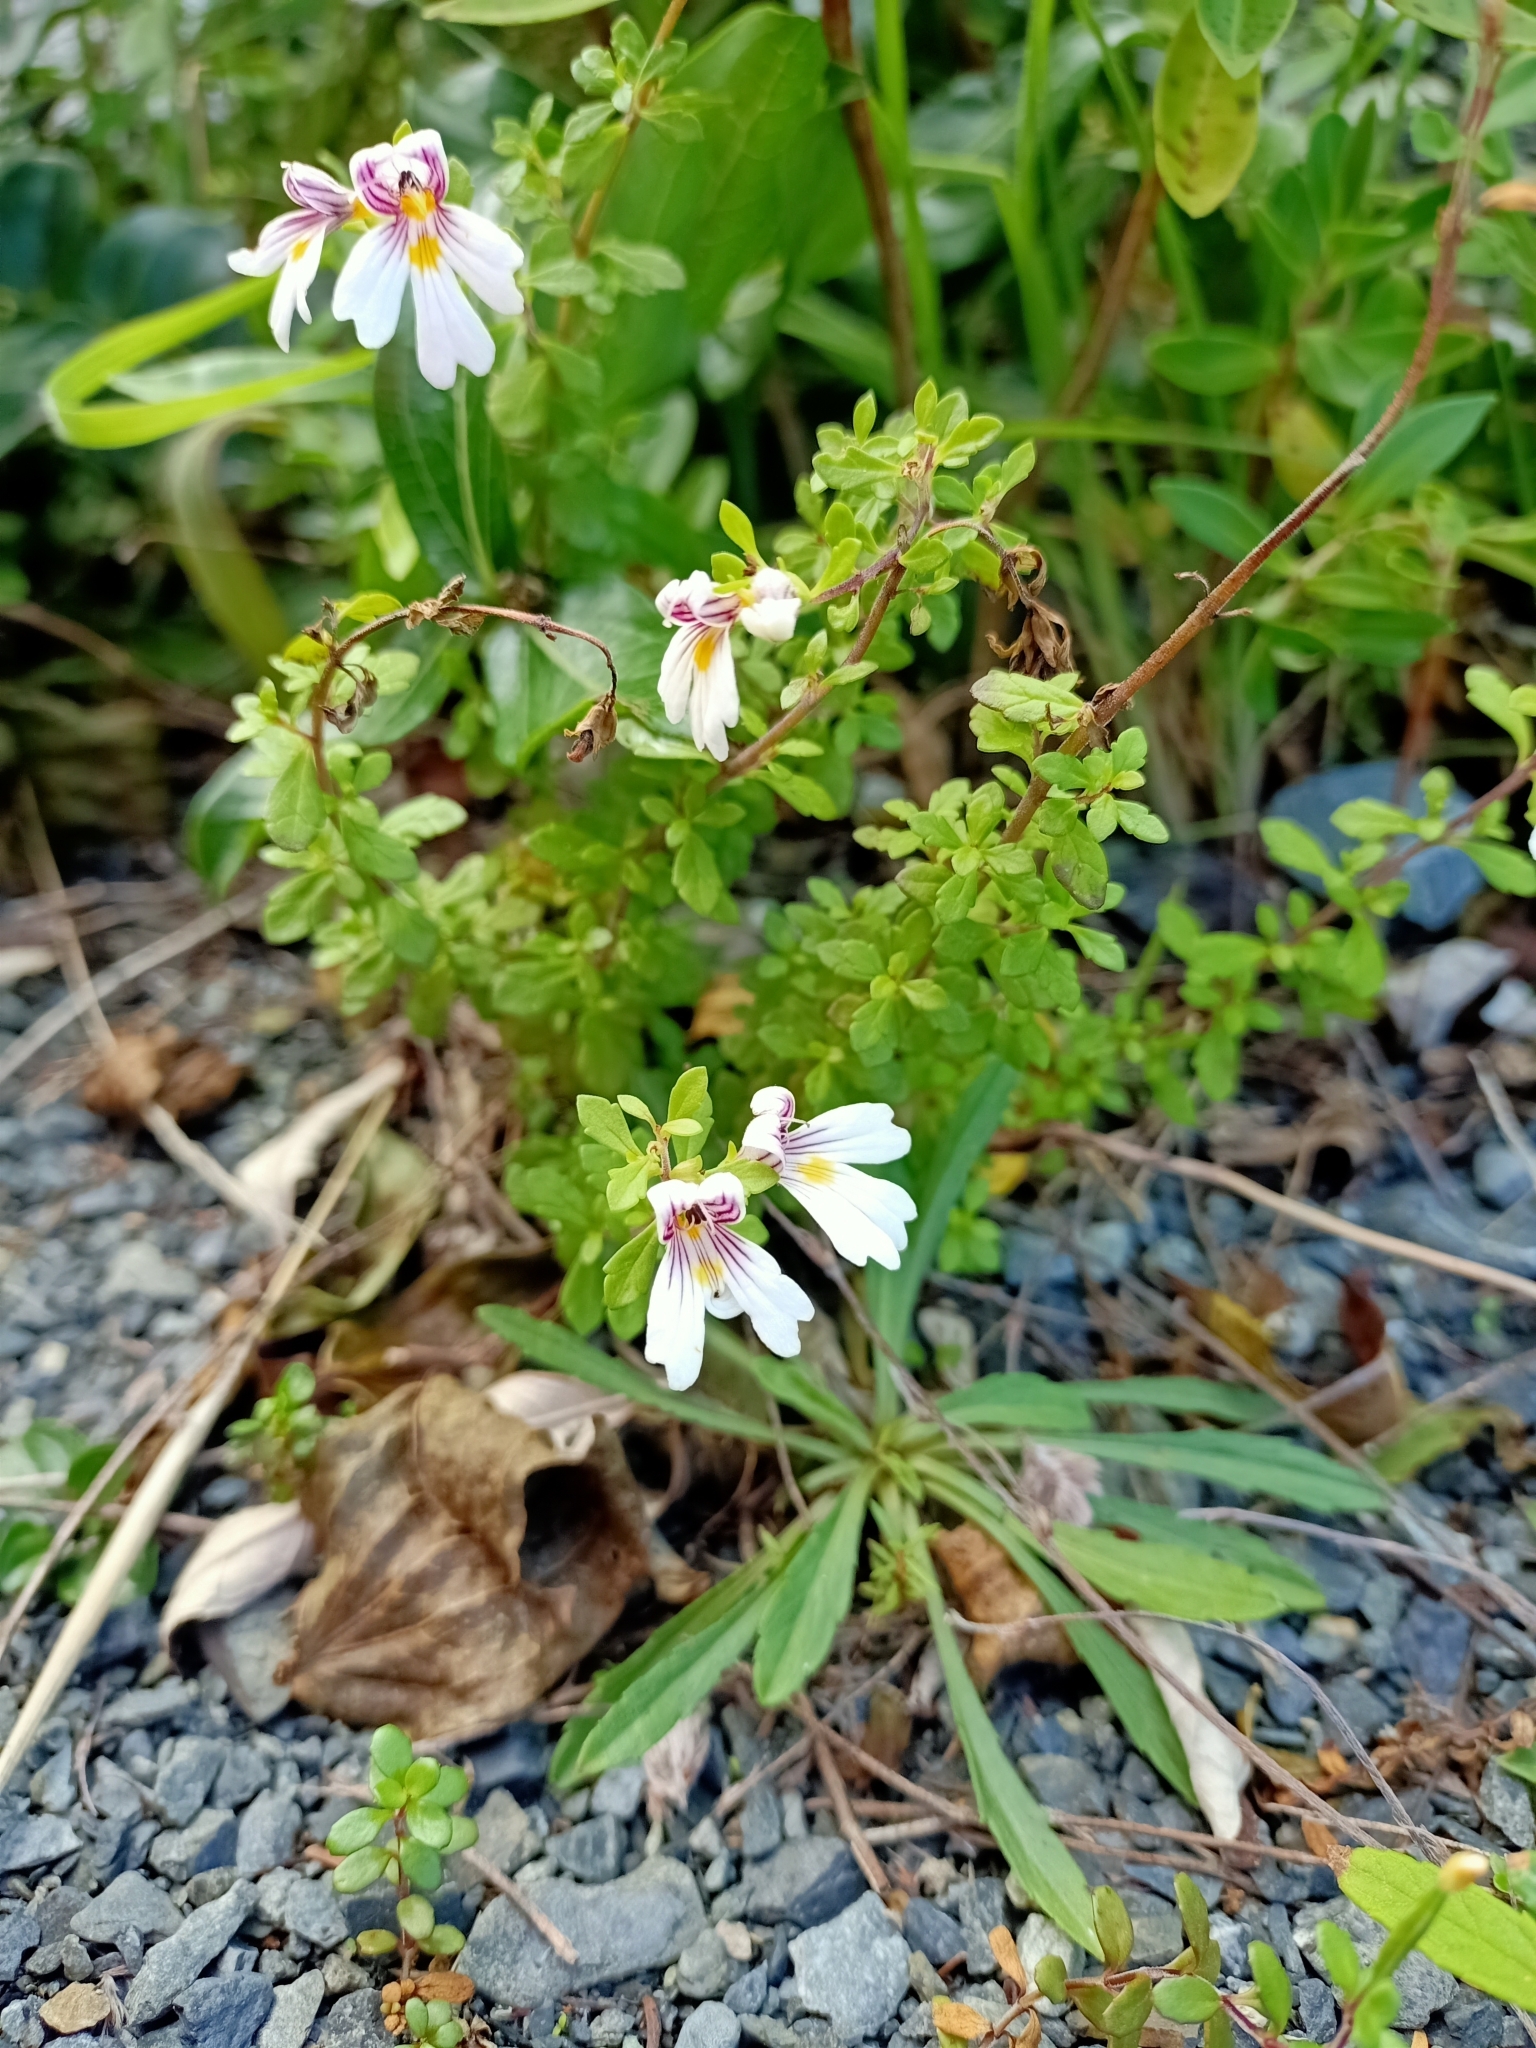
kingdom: Plantae
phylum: Tracheophyta
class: Magnoliopsida
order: Lamiales
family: Orobanchaceae
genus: Euphrasia
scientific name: Euphrasia cuneata
